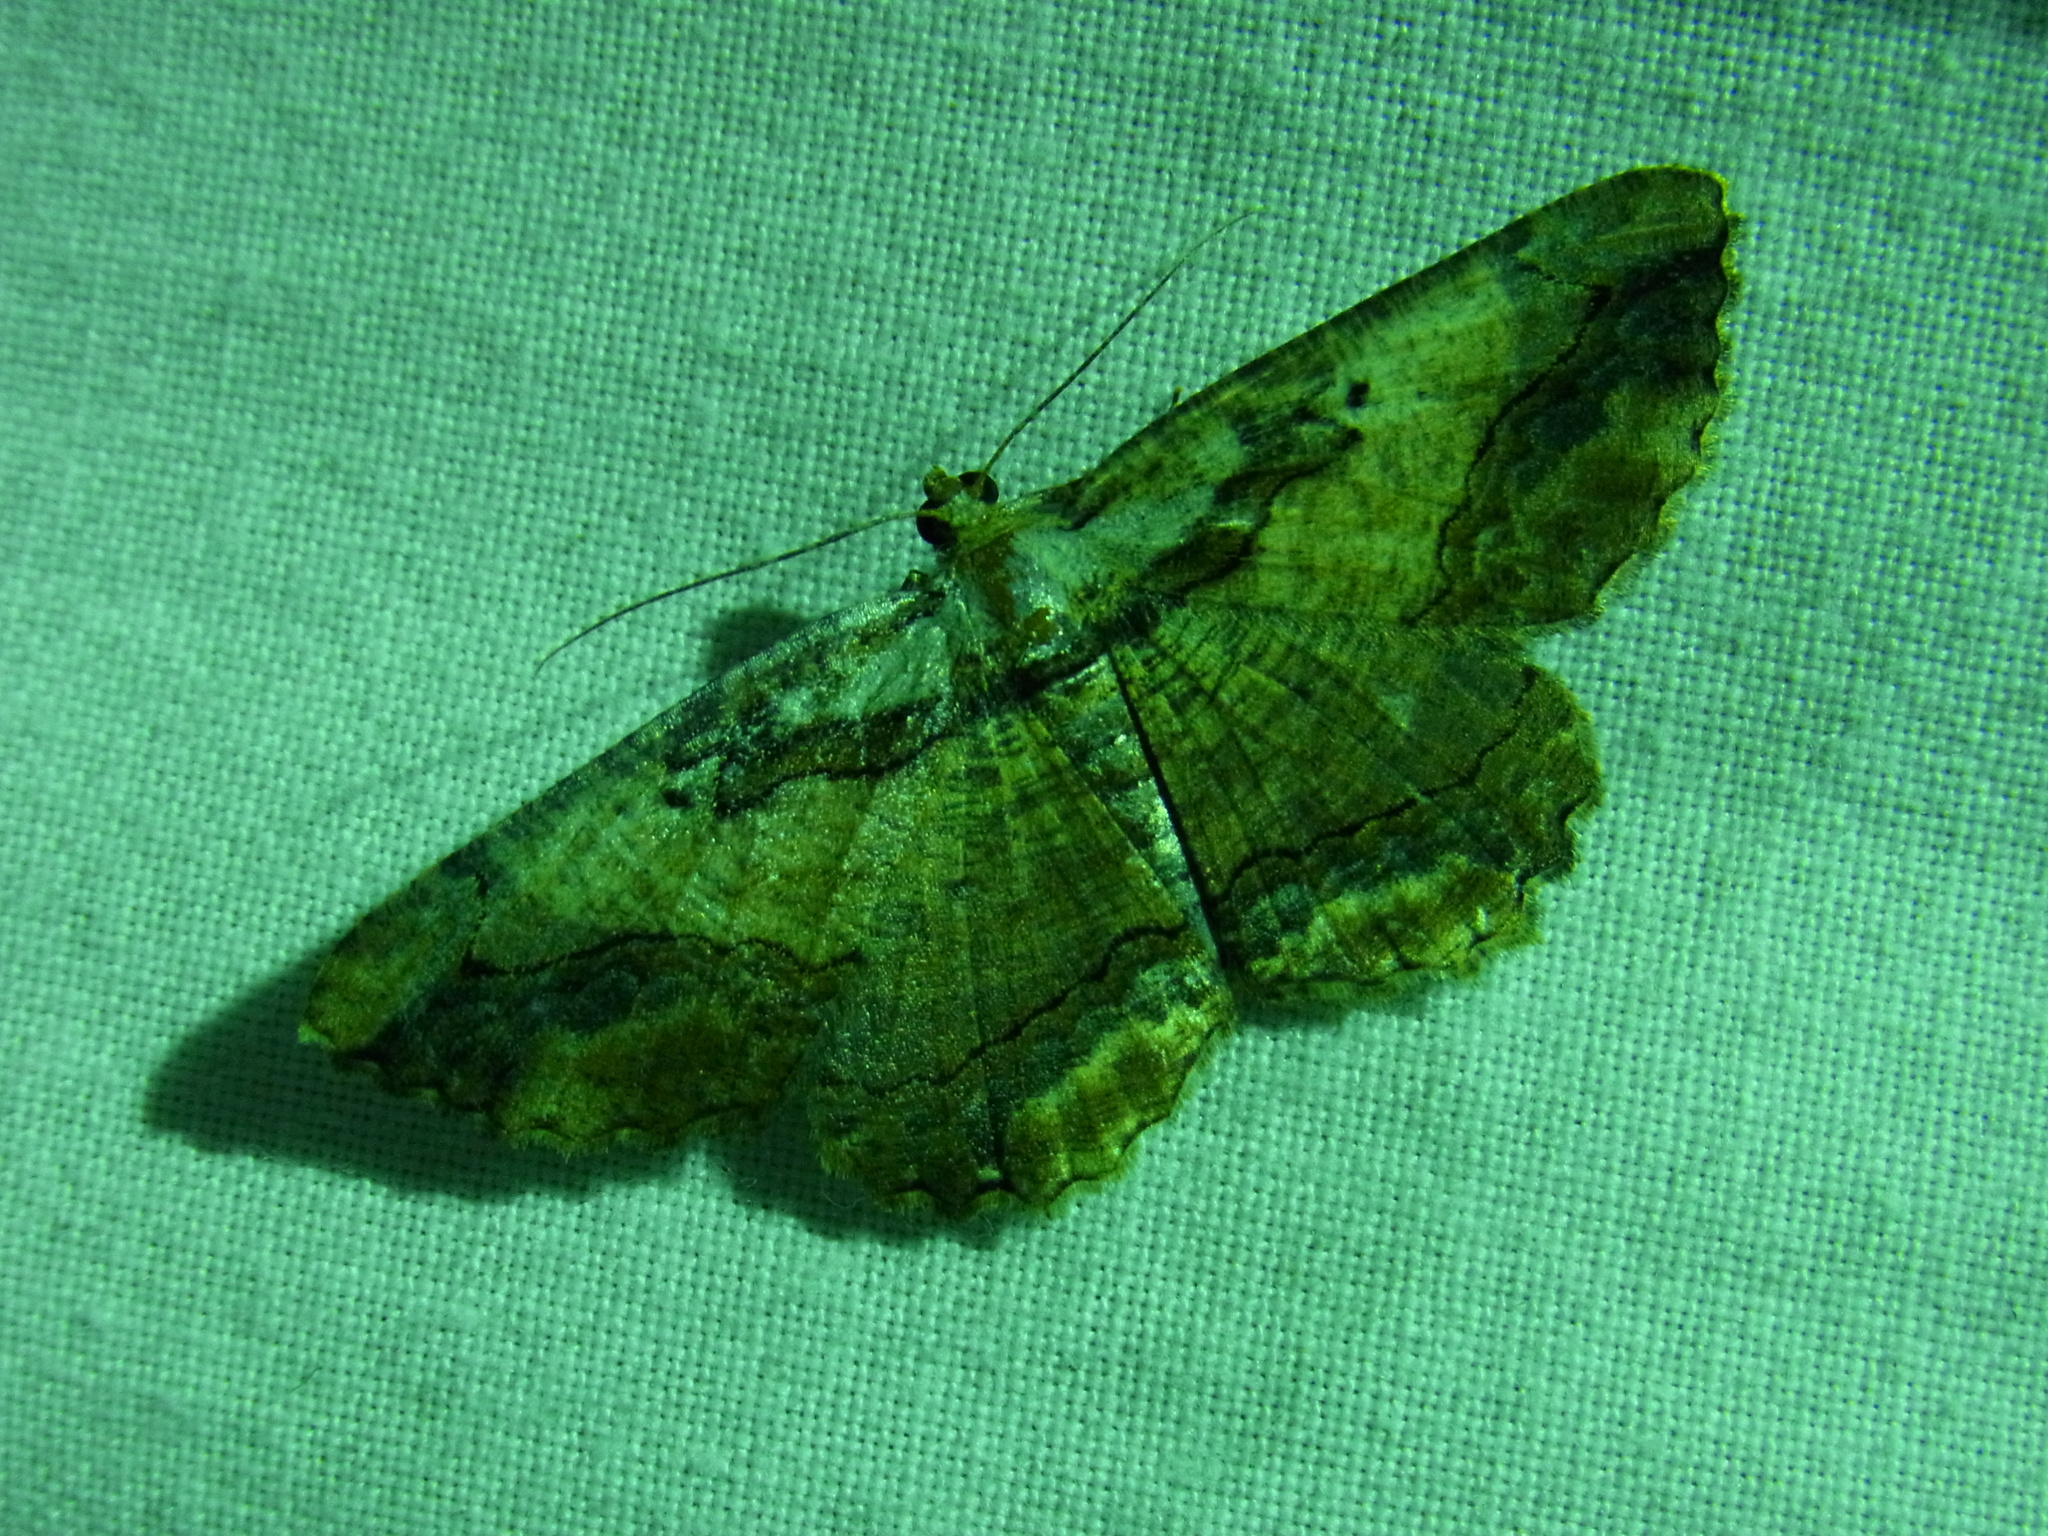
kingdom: Animalia
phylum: Arthropoda
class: Insecta
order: Lepidoptera
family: Geometridae
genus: Menophra
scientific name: Menophra senilis
